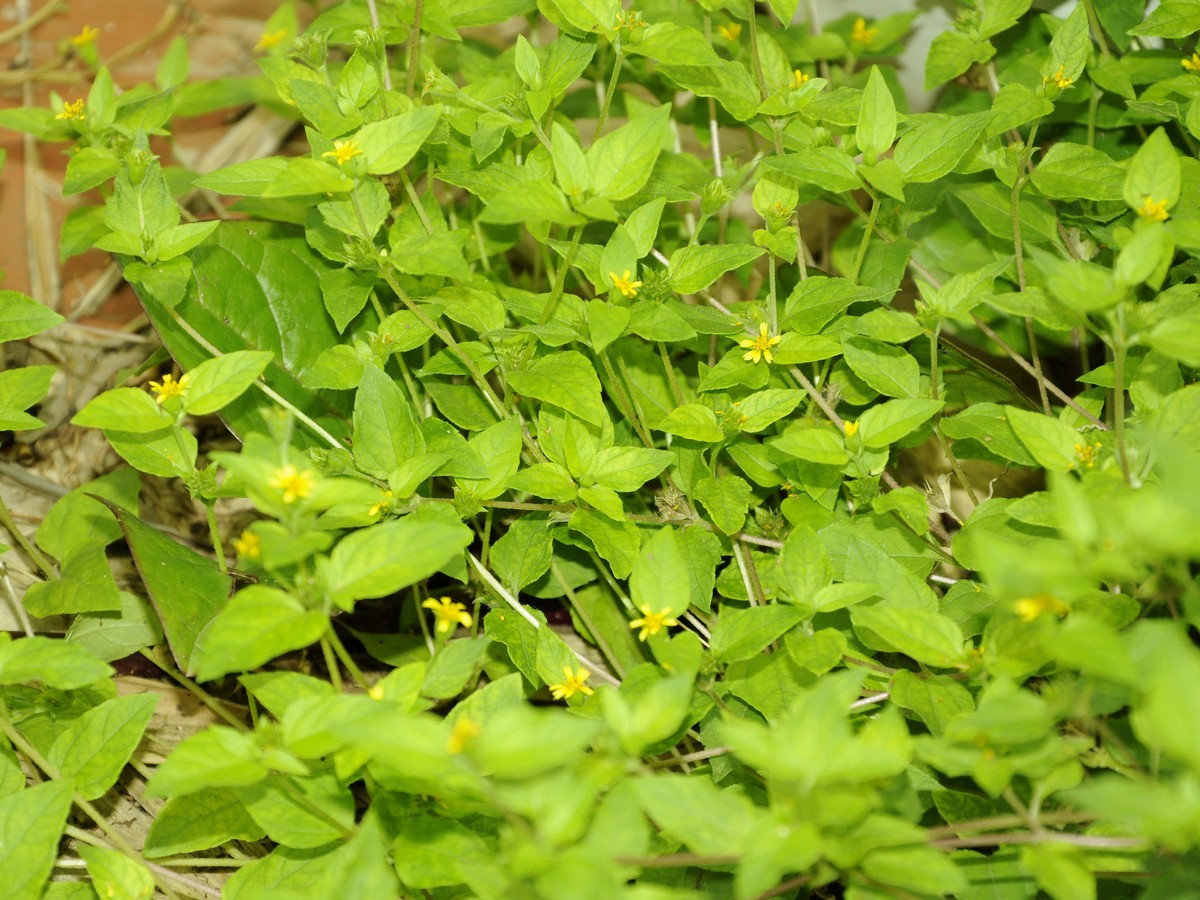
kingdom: Plantae
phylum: Tracheophyta
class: Magnoliopsida
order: Asterales
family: Asteraceae
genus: Calyptocarpus
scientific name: Calyptocarpus vialis
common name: Straggler daisy
